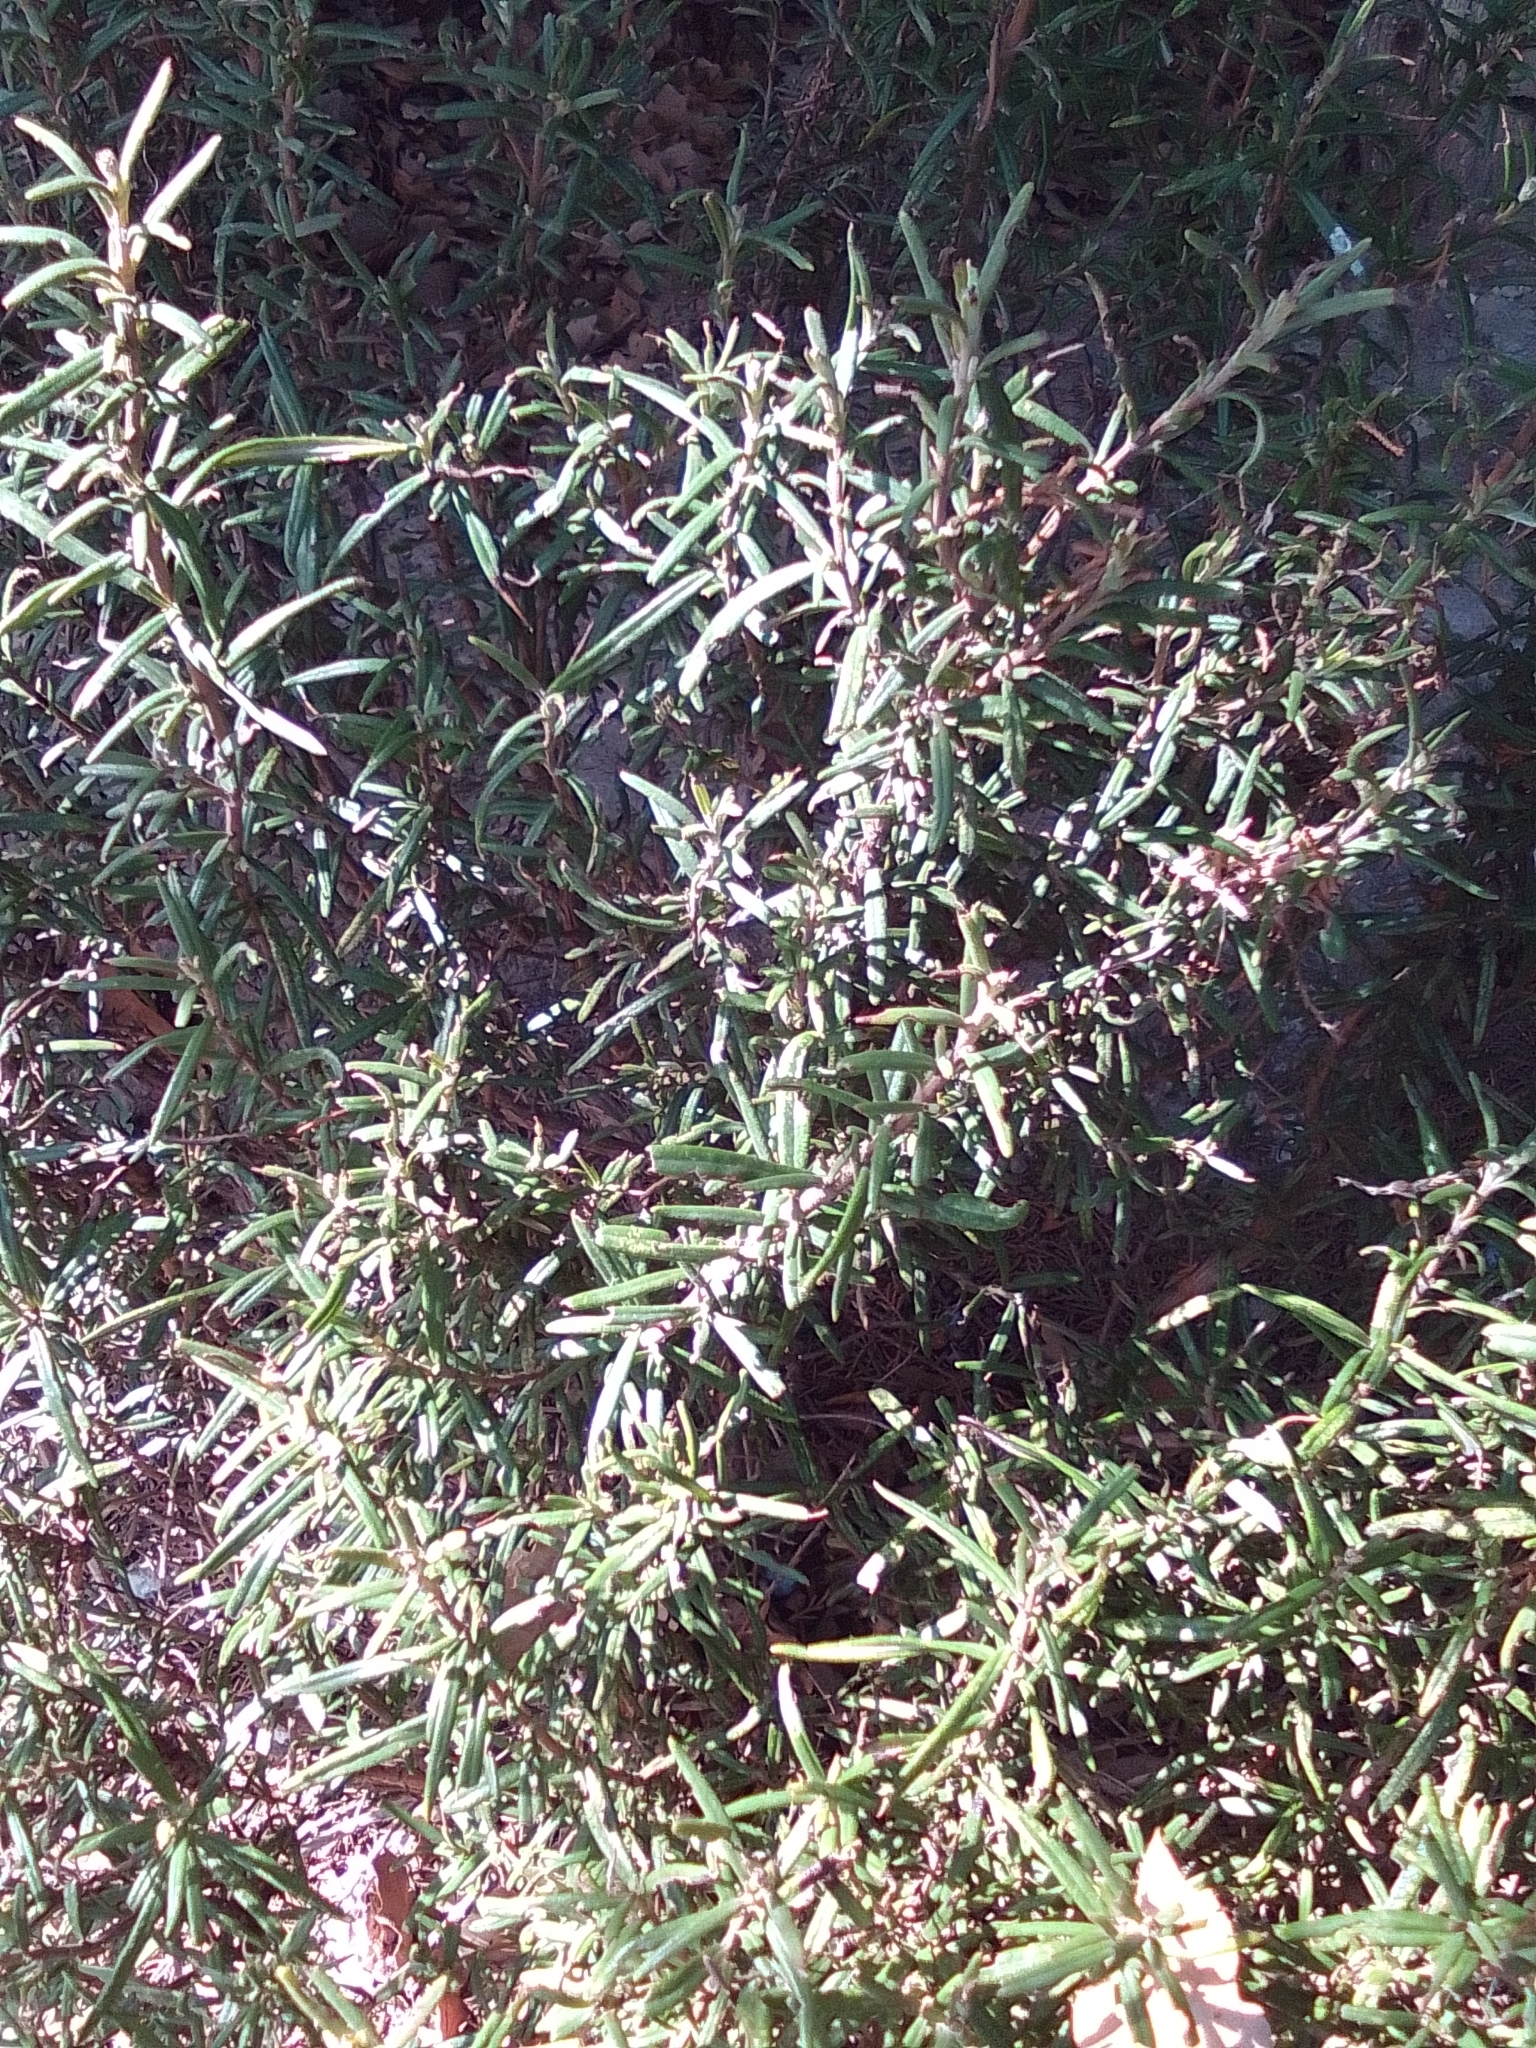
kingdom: Plantae
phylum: Tracheophyta
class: Magnoliopsida
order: Lamiales
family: Lamiaceae
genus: Salvia
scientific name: Salvia rosmarinus
